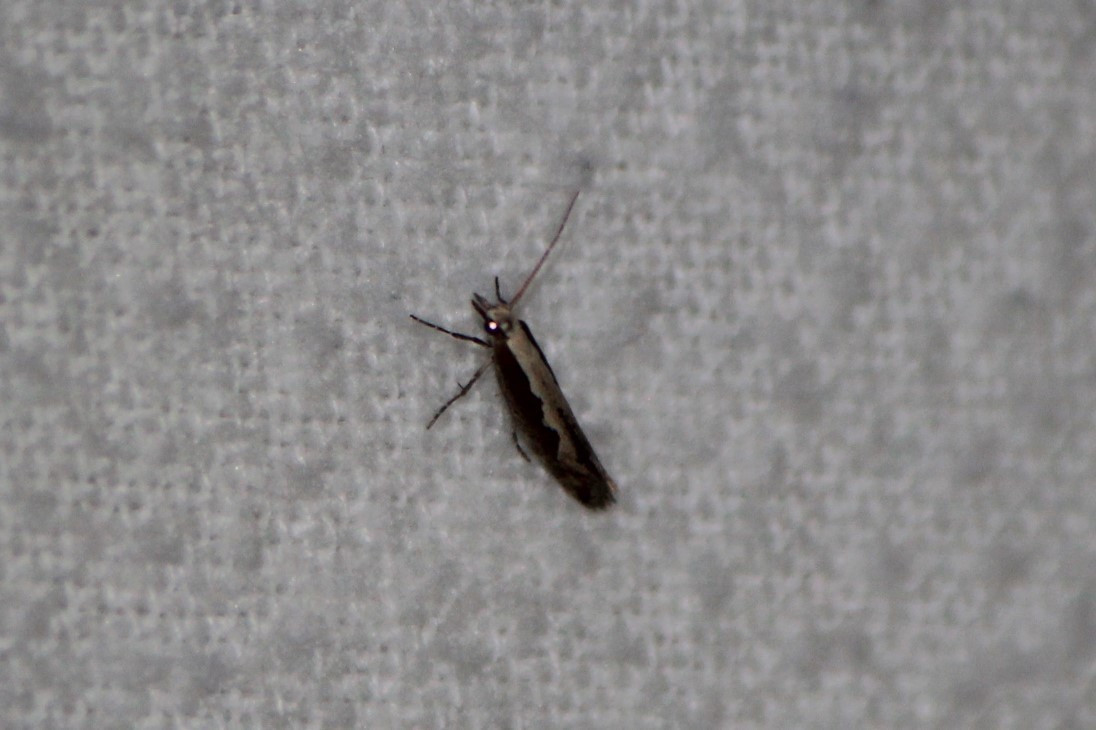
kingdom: Animalia
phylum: Arthropoda
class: Insecta
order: Lepidoptera
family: Plutellidae
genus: Plutella
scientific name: Plutella xylostella
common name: Diamond-back moth
